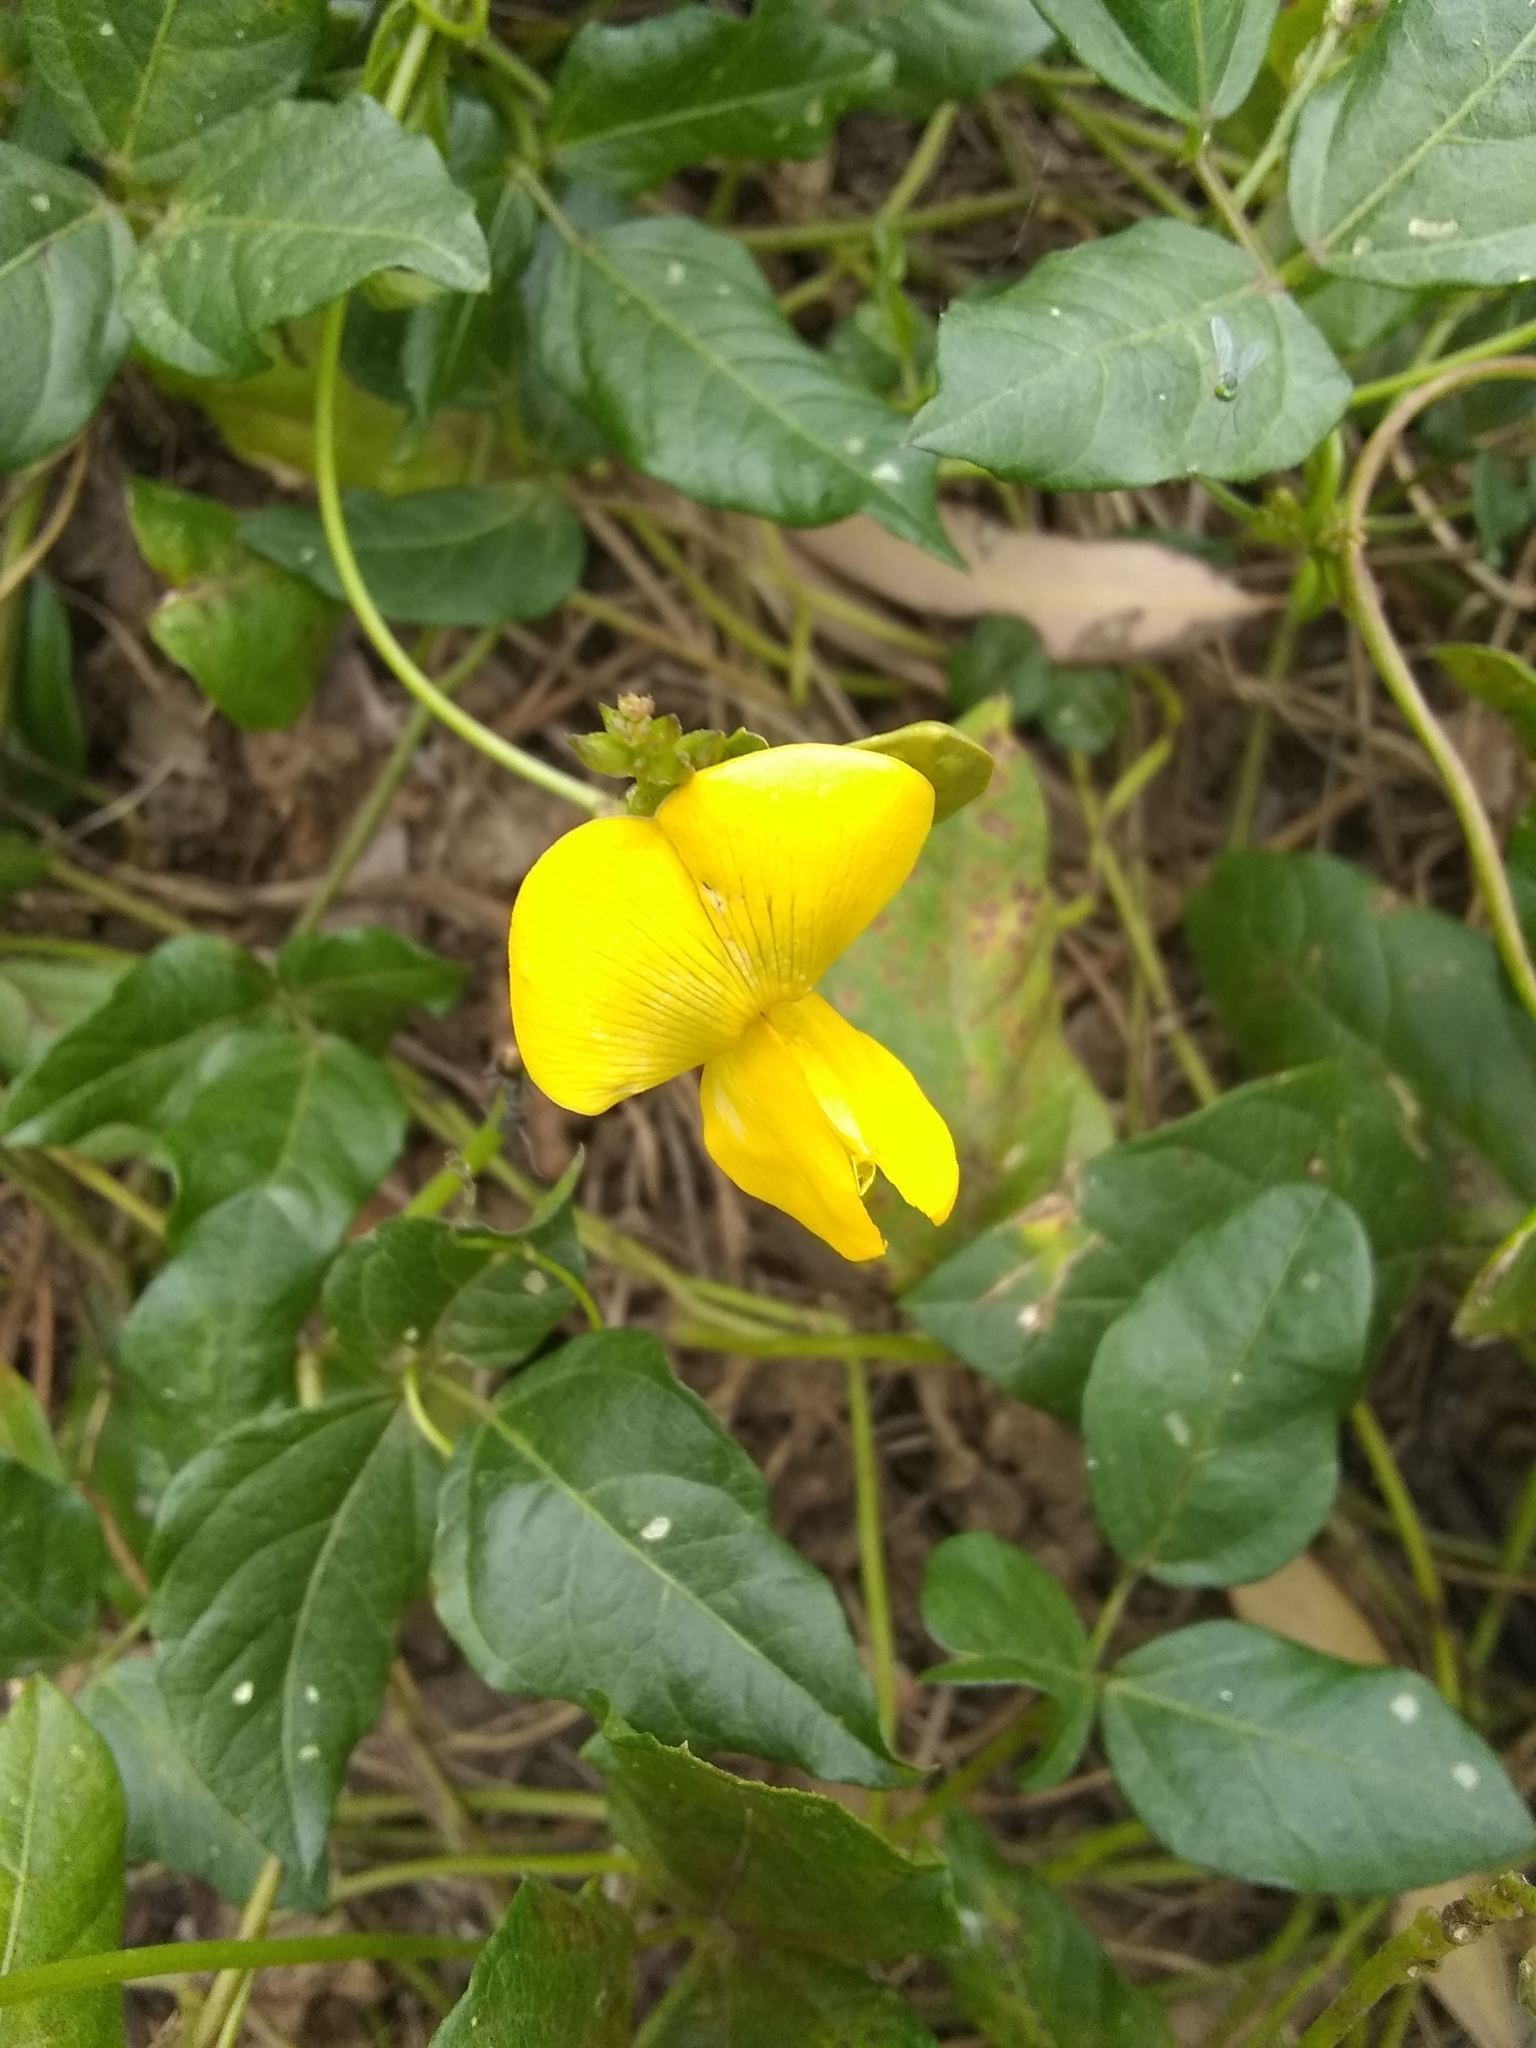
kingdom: Plantae
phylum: Tracheophyta
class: Magnoliopsida
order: Fabales
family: Fabaceae
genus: Vigna
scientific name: Vigna luteola
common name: Hairypod cowpea
